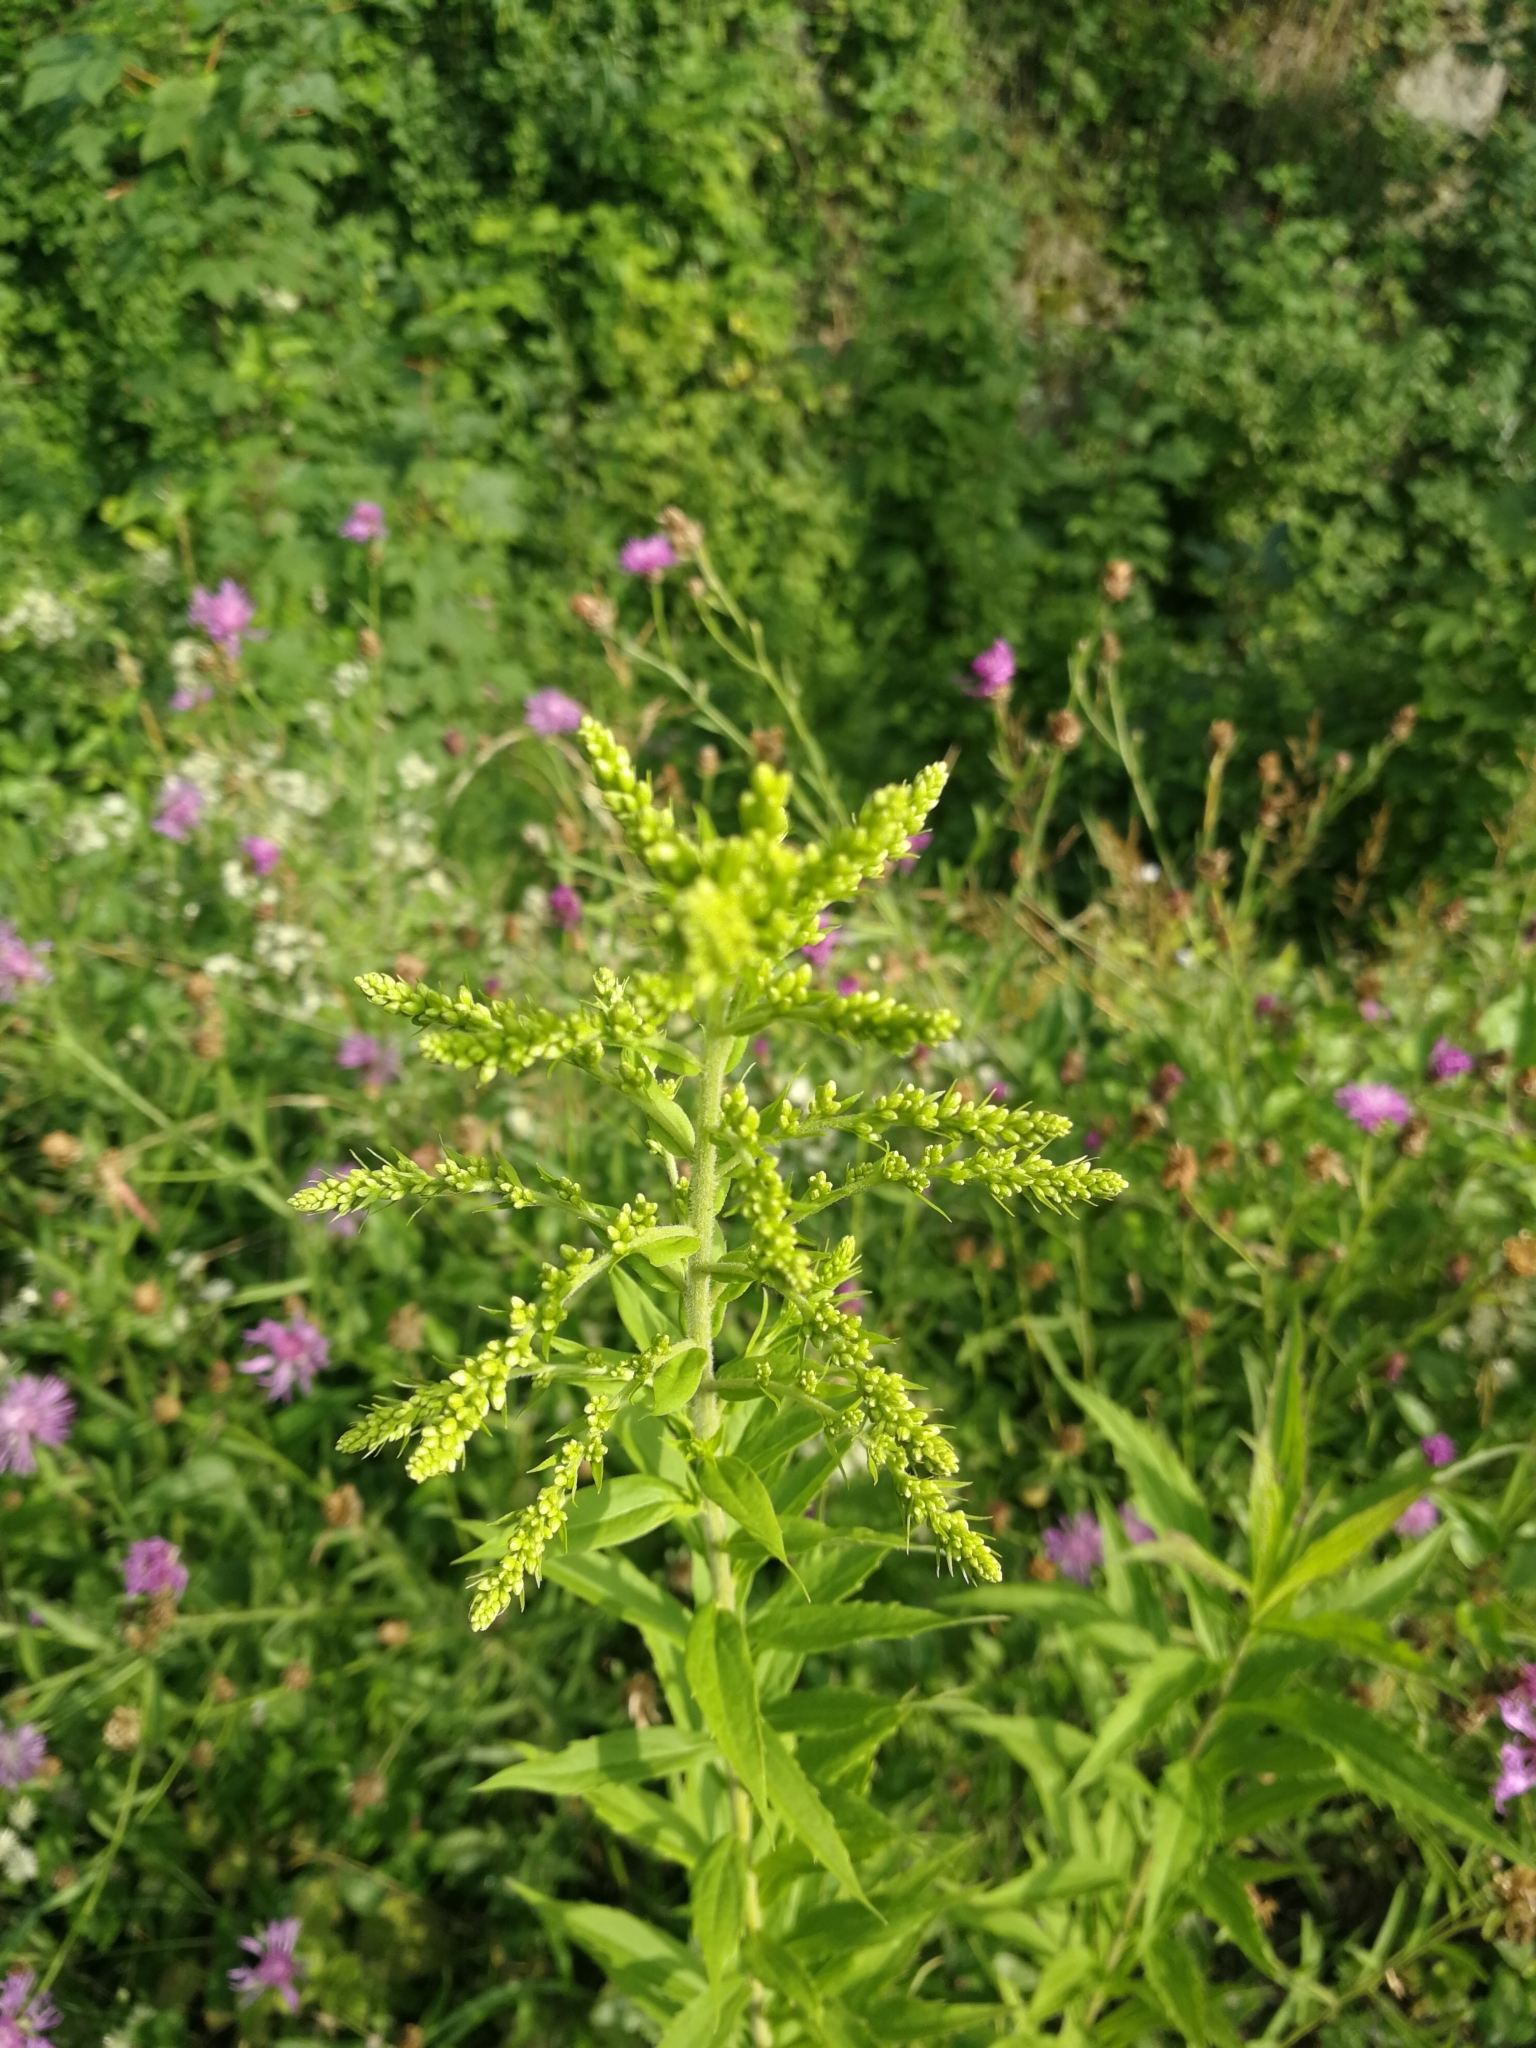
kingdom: Plantae
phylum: Tracheophyta
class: Magnoliopsida
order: Asterales
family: Asteraceae
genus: Solidago
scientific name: Solidago canadensis
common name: Canada goldenrod
